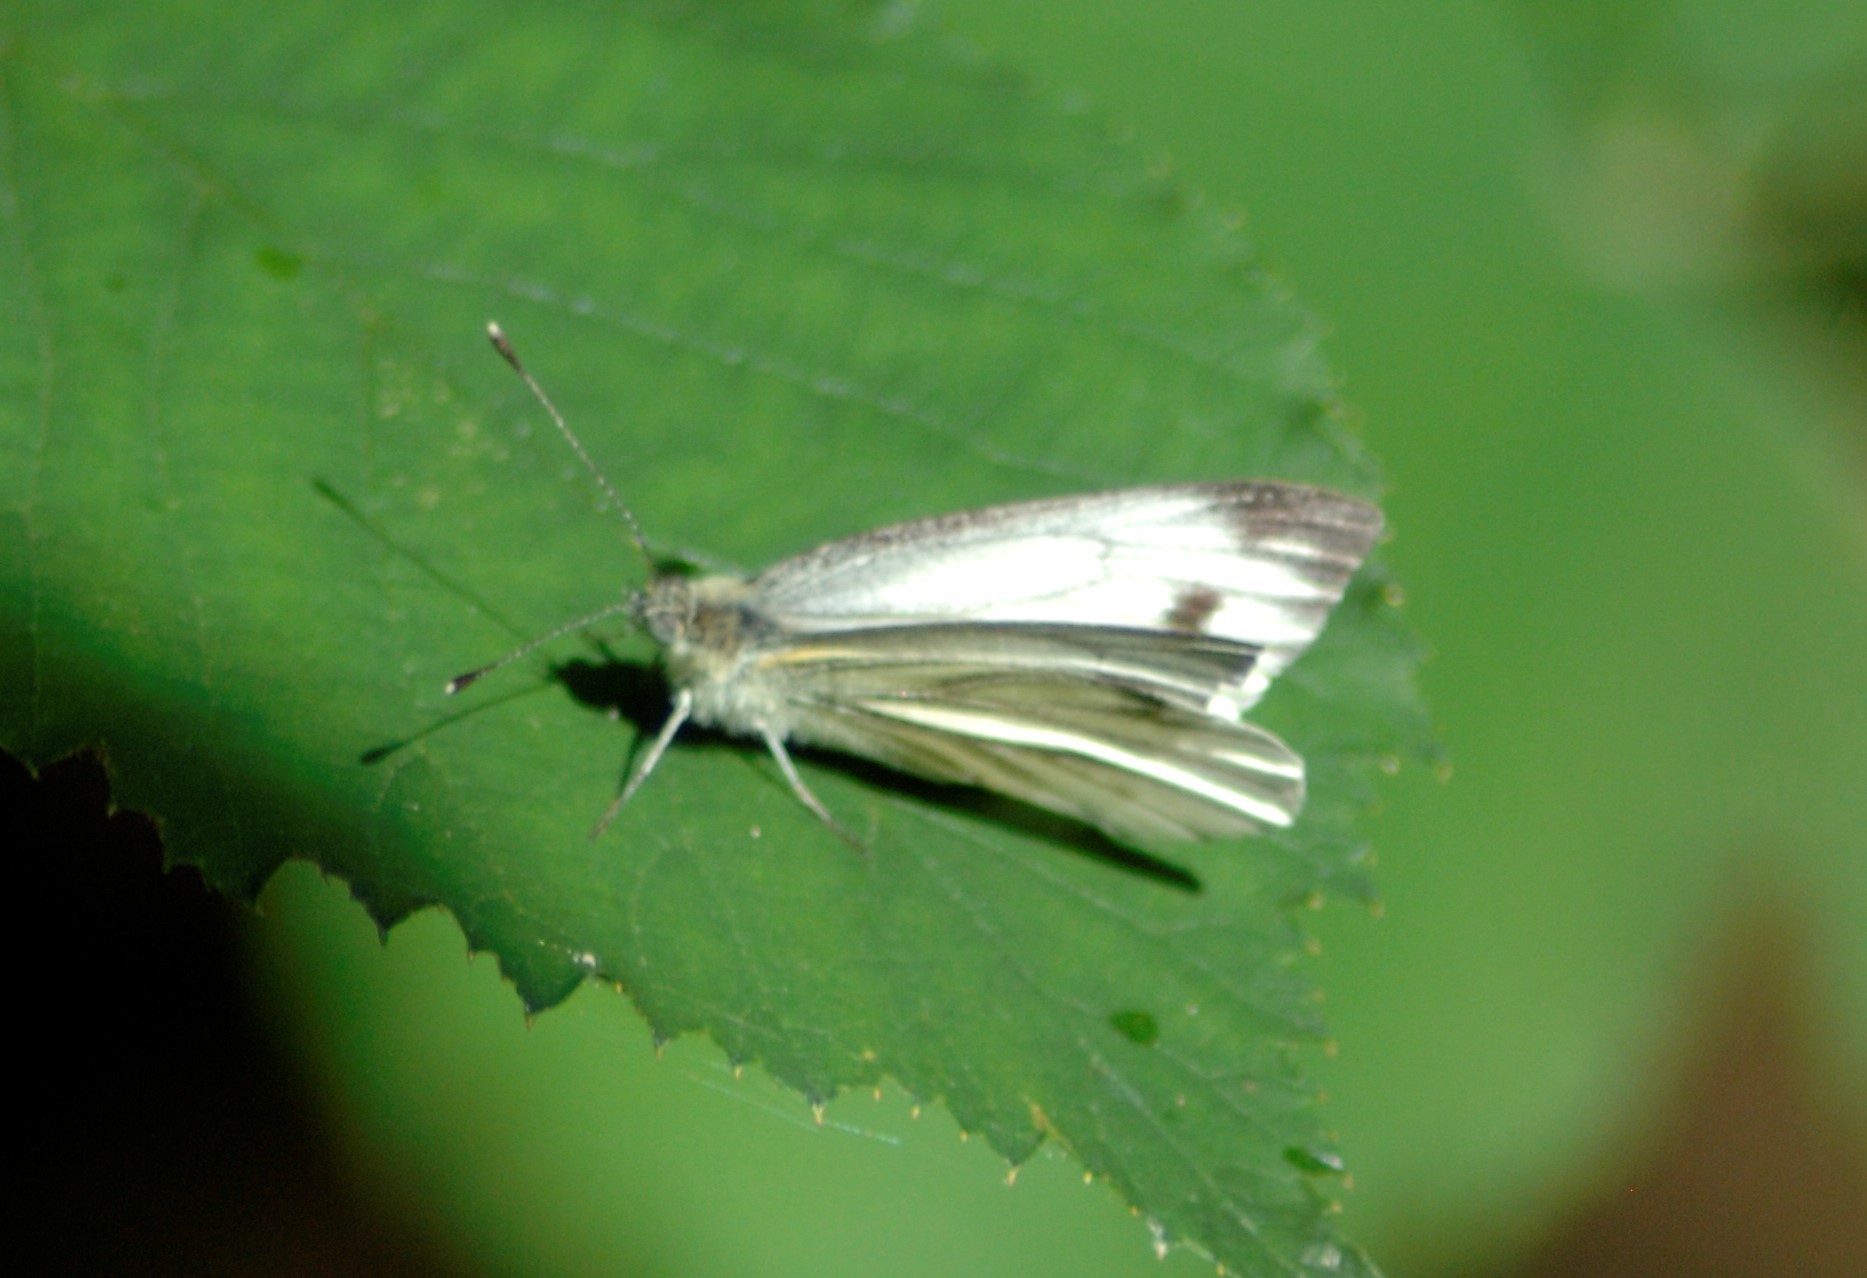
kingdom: Animalia
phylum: Arthropoda
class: Insecta
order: Lepidoptera
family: Pieridae
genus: Pieris
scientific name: Pieris napi
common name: Green-veined white
